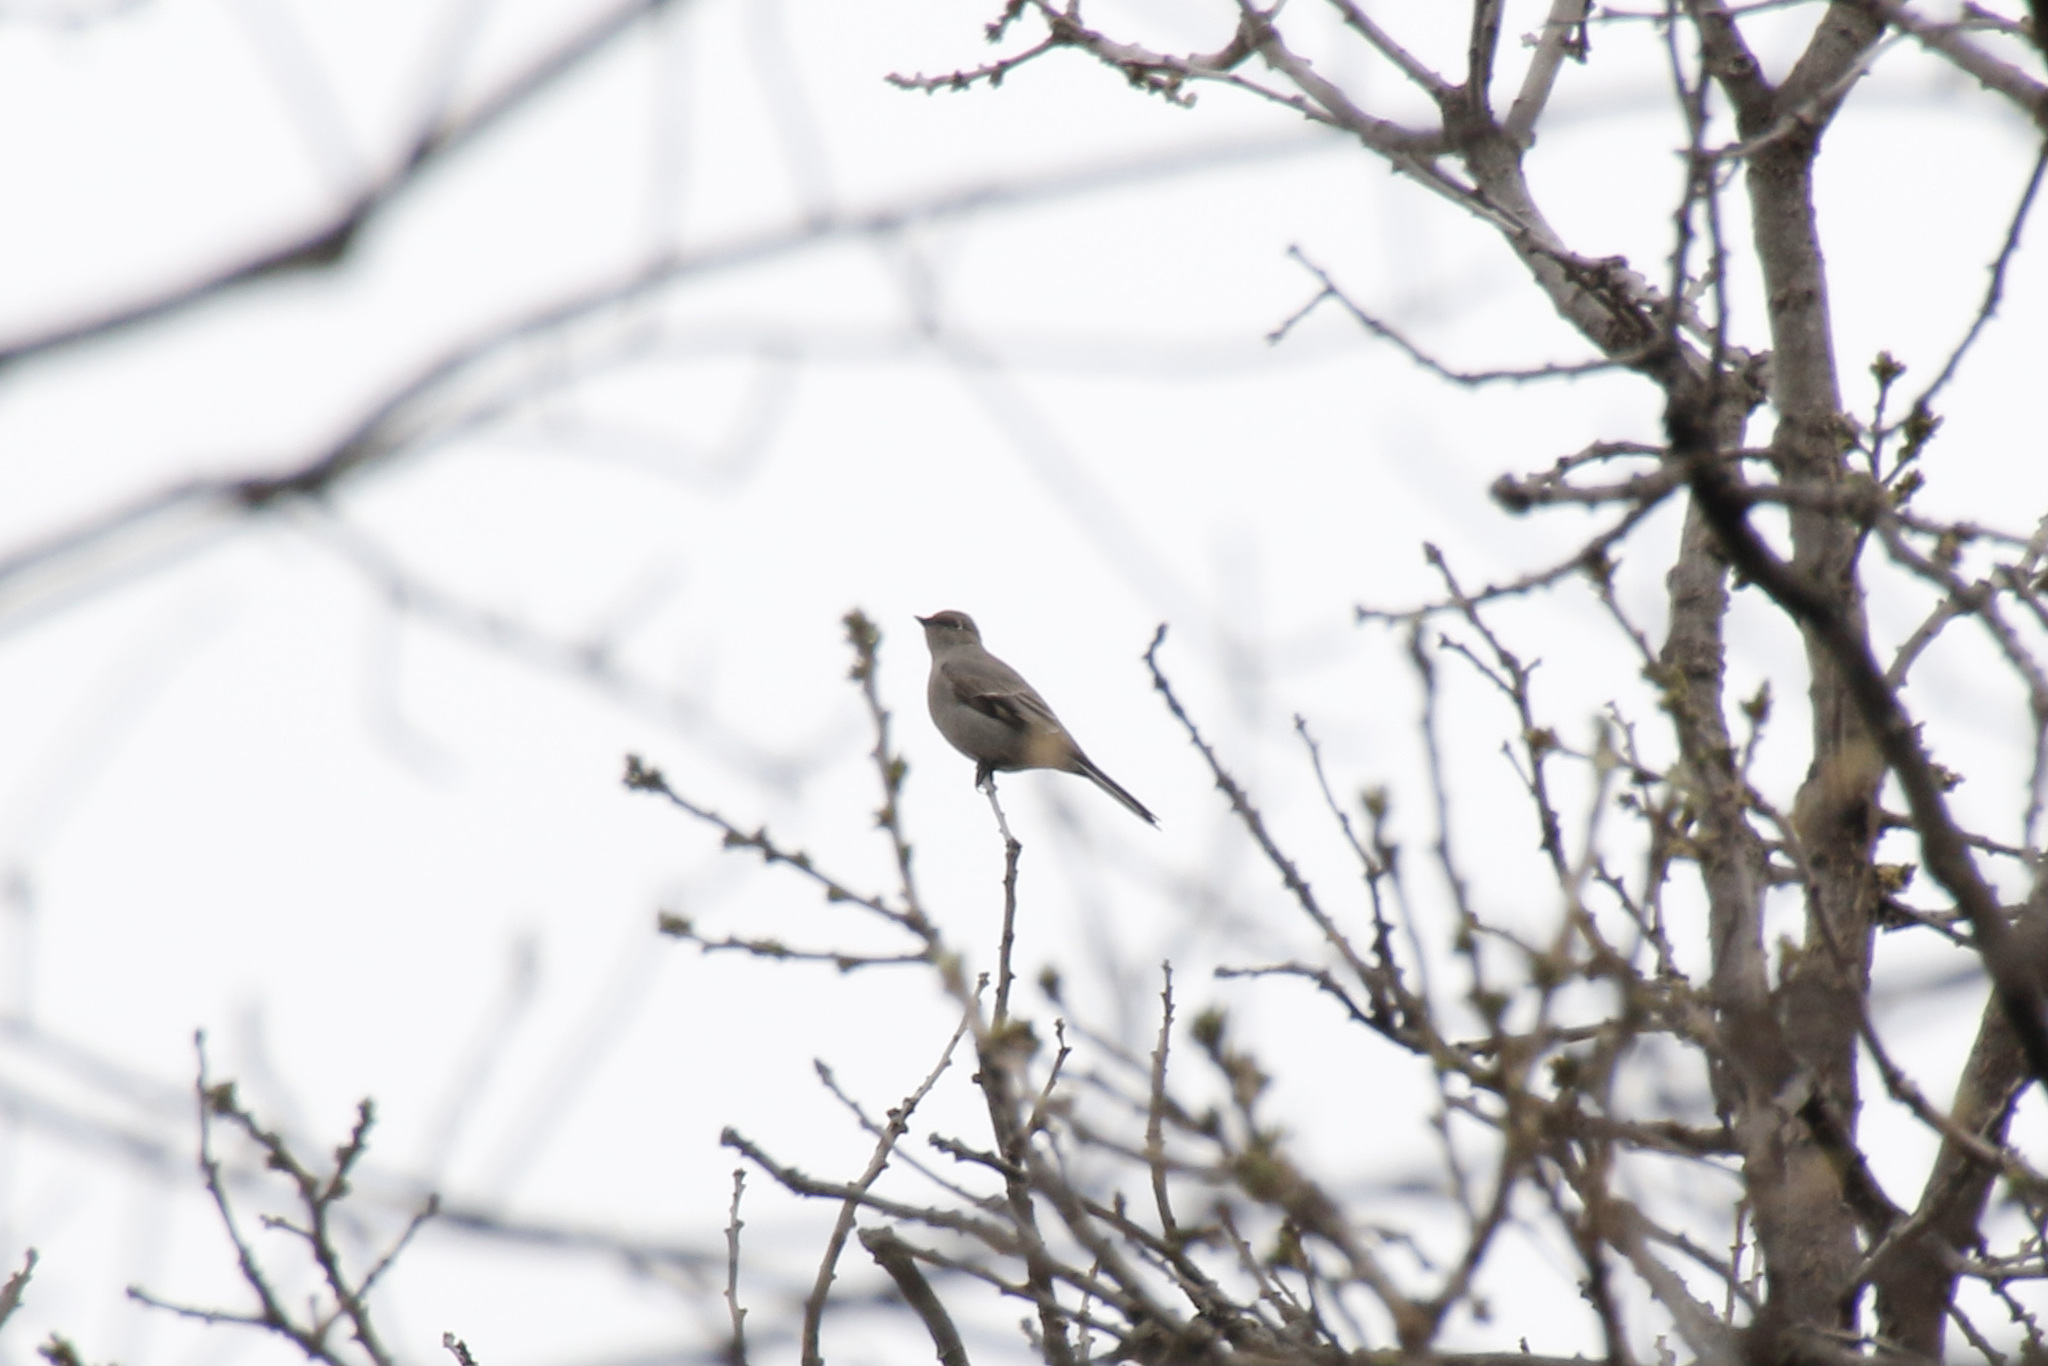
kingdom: Animalia
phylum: Chordata
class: Aves
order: Passeriformes
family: Turdidae
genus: Myadestes
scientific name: Myadestes townsendi
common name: Townsend's solitaire
